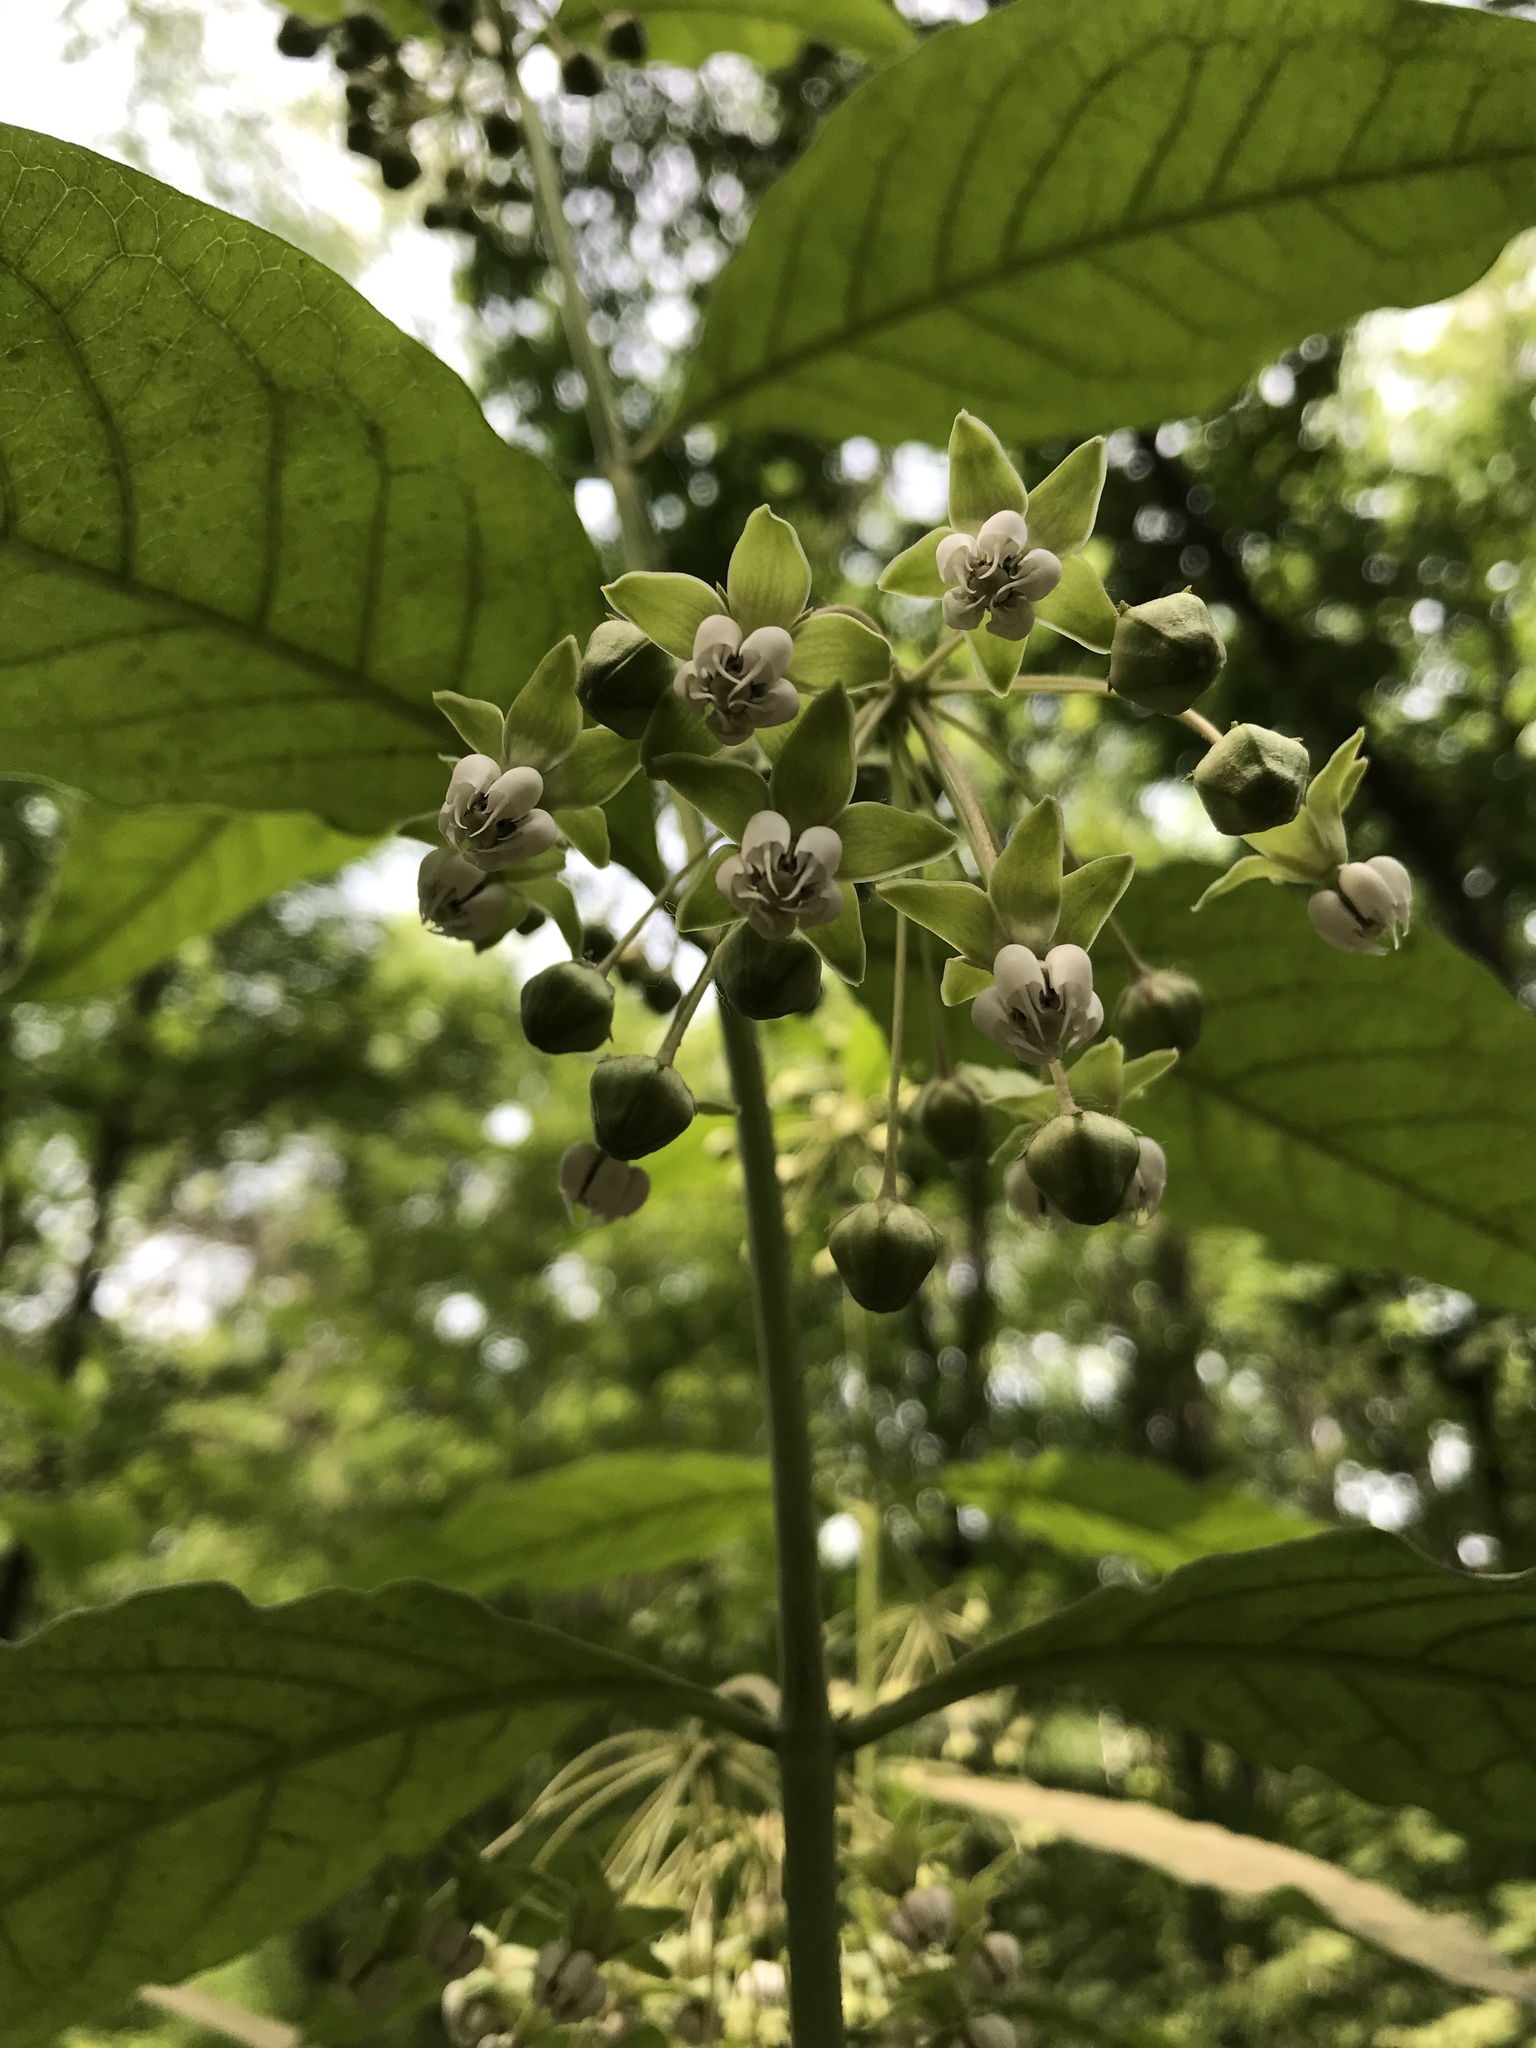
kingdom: Plantae
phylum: Tracheophyta
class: Magnoliopsida
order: Gentianales
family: Apocynaceae
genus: Asclepias
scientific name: Asclepias exaltata
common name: Poke milkweed
